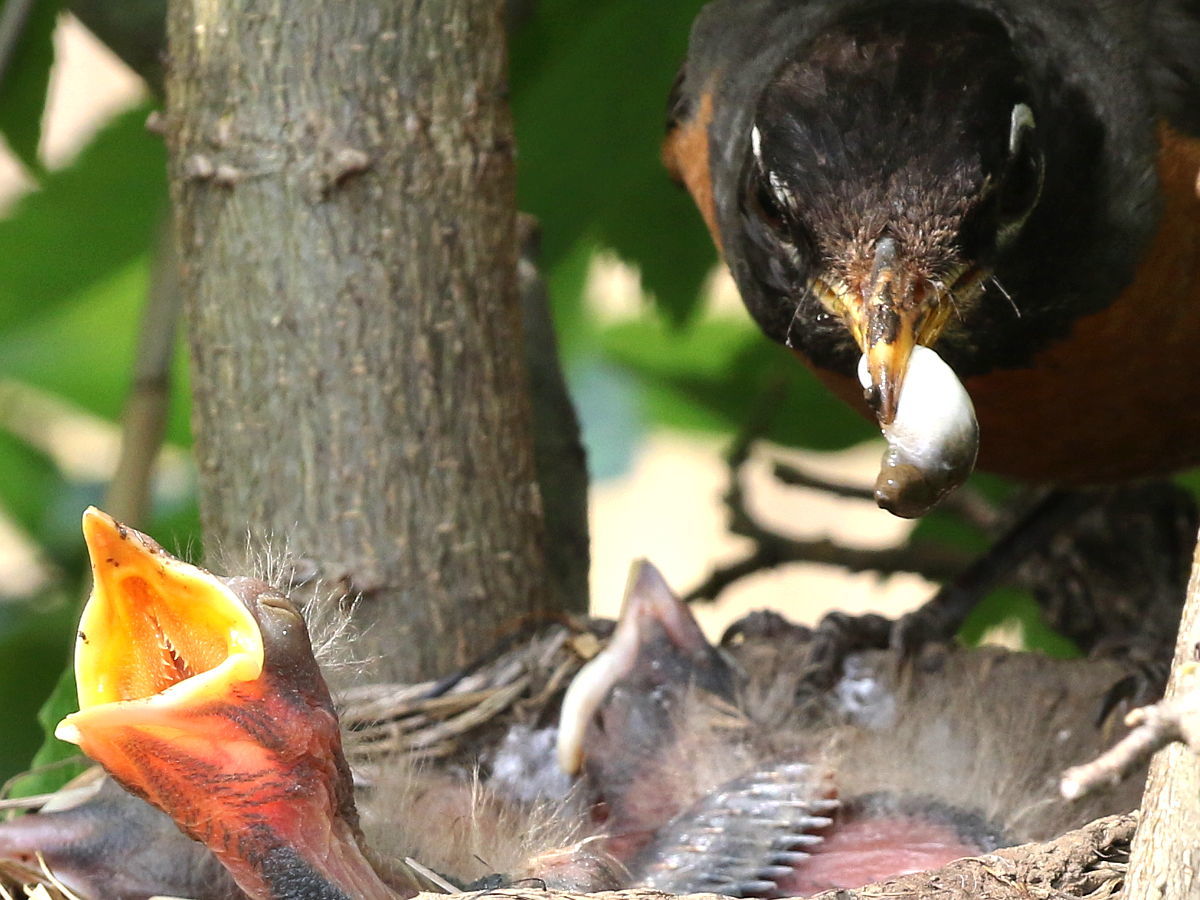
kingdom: Animalia
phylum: Chordata
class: Aves
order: Passeriformes
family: Turdidae
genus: Turdus
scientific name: Turdus migratorius
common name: American robin
